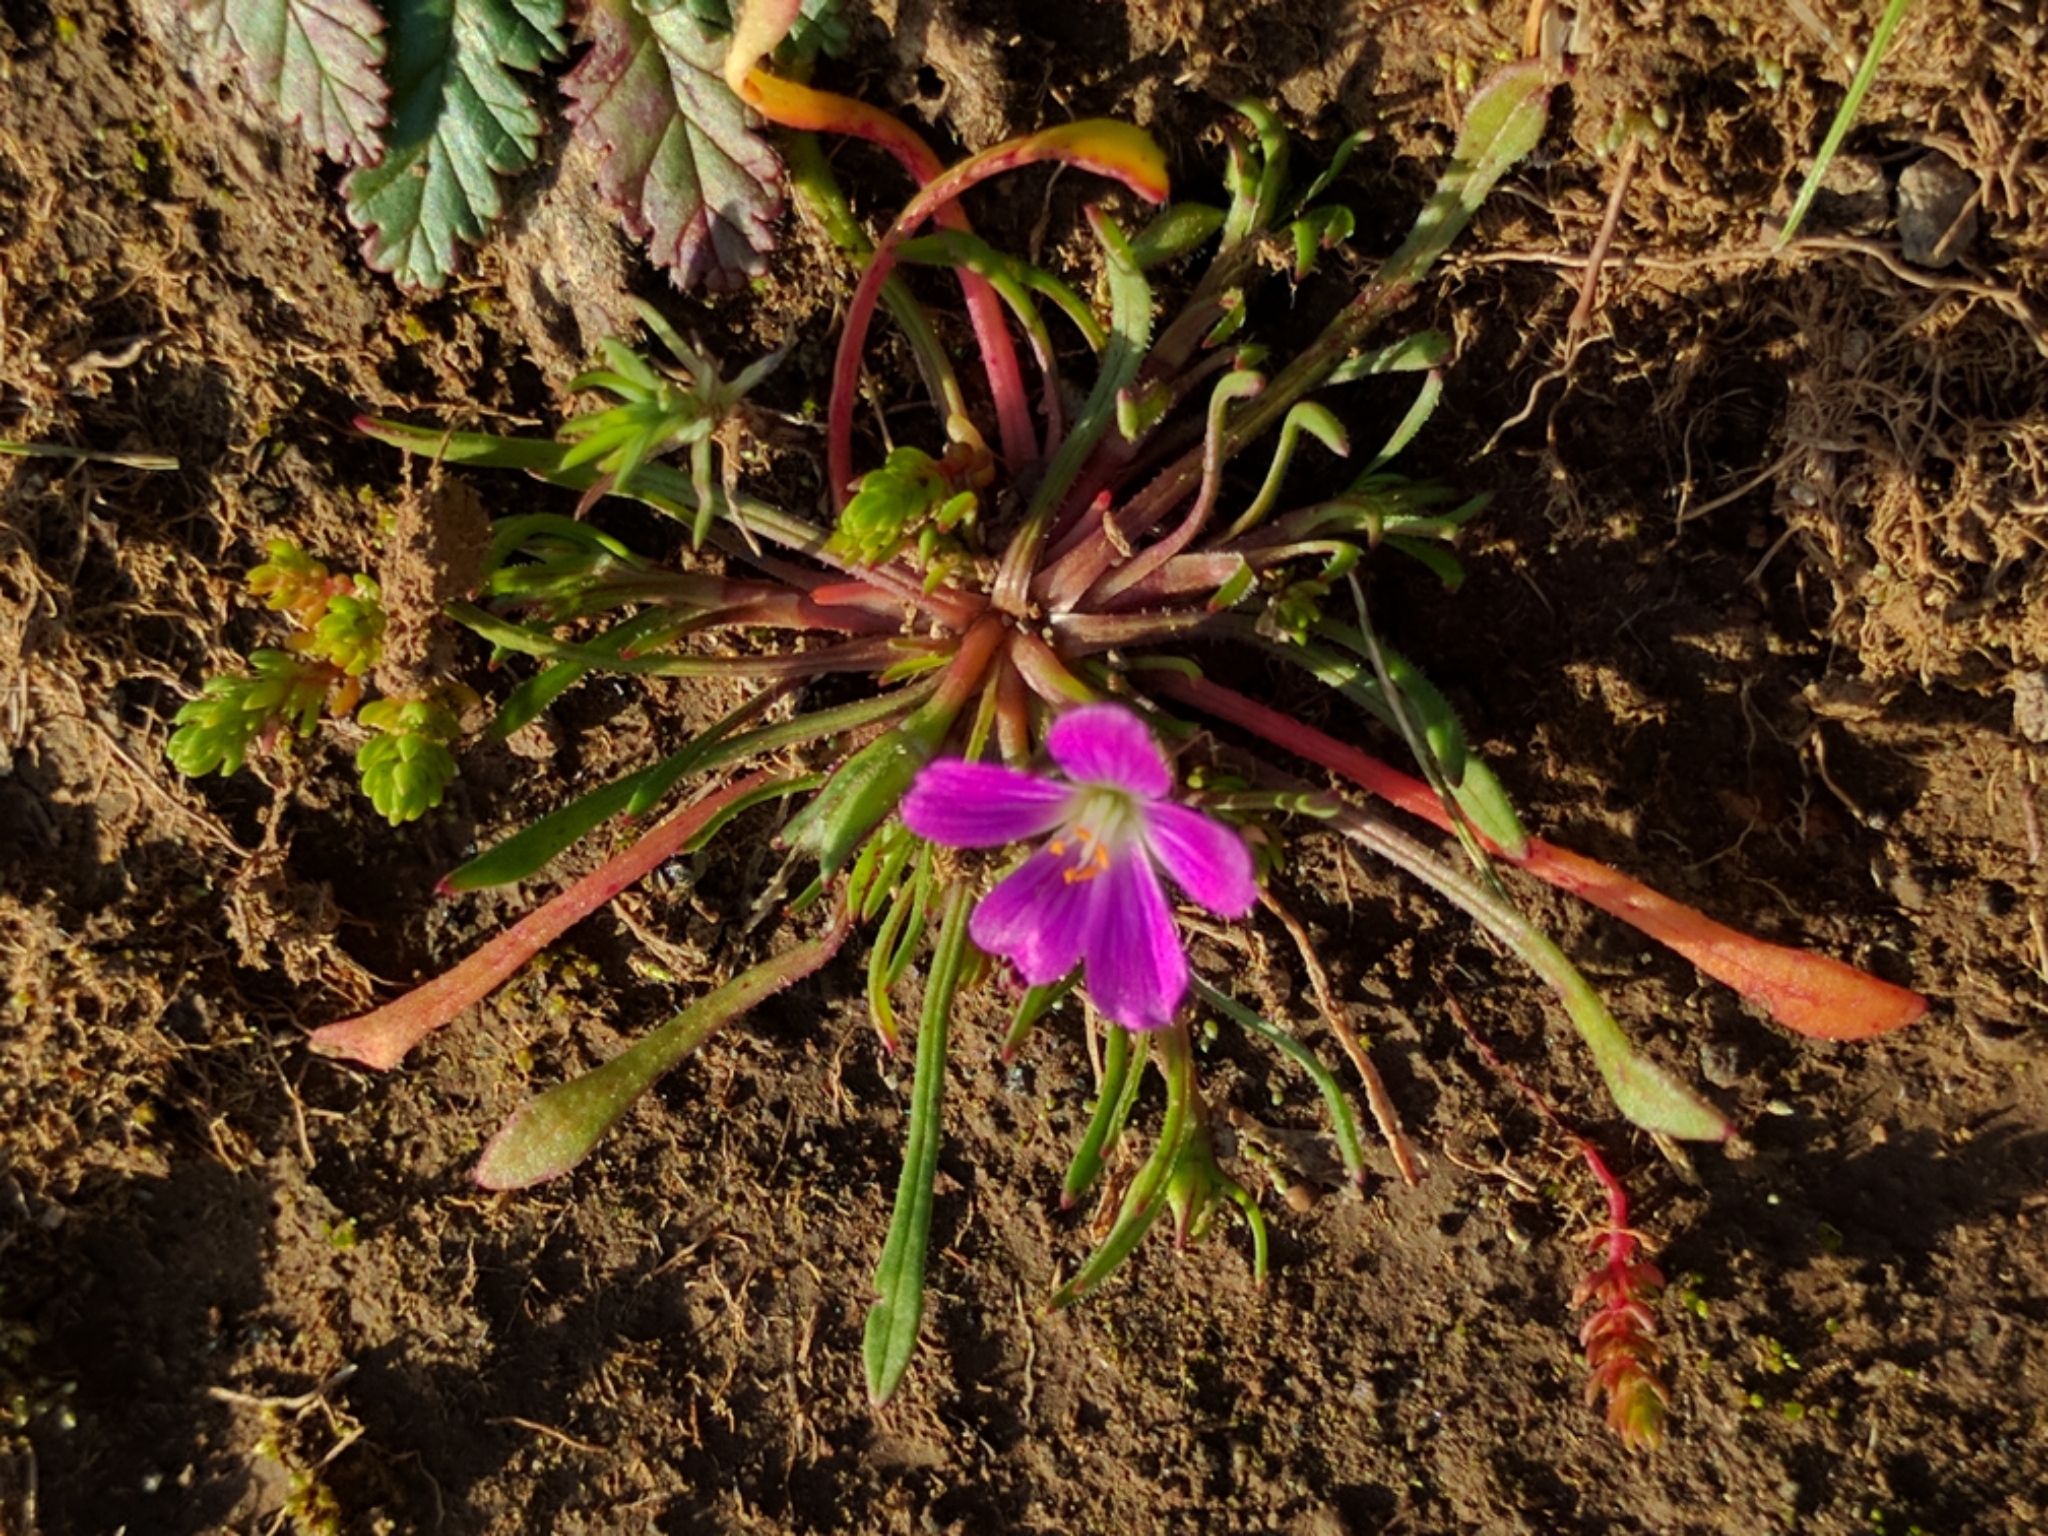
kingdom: Plantae
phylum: Tracheophyta
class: Magnoliopsida
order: Caryophyllales
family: Montiaceae
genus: Calandrinia
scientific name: Calandrinia menziesii
